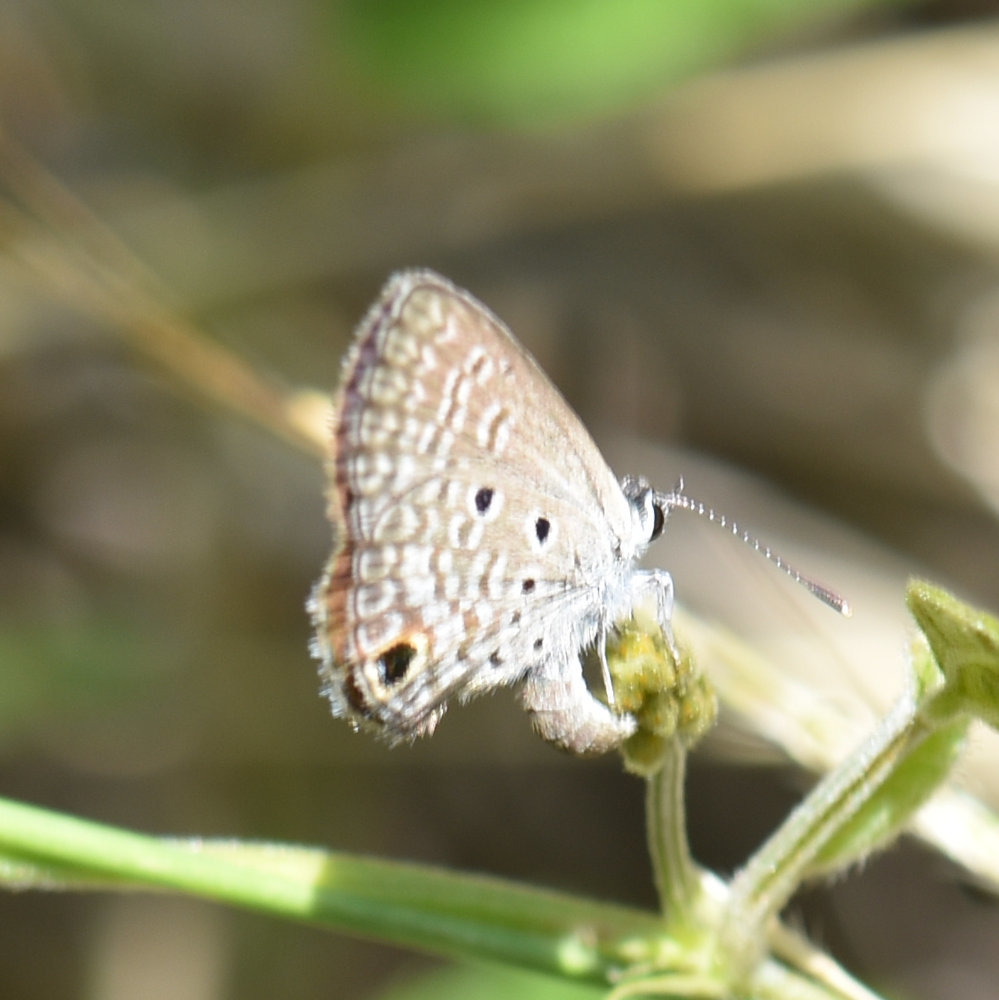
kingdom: Animalia
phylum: Arthropoda
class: Insecta
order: Lepidoptera
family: Lycaenidae
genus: Hemiargus
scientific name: Hemiargus ceraunus
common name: Ceraunus blue
